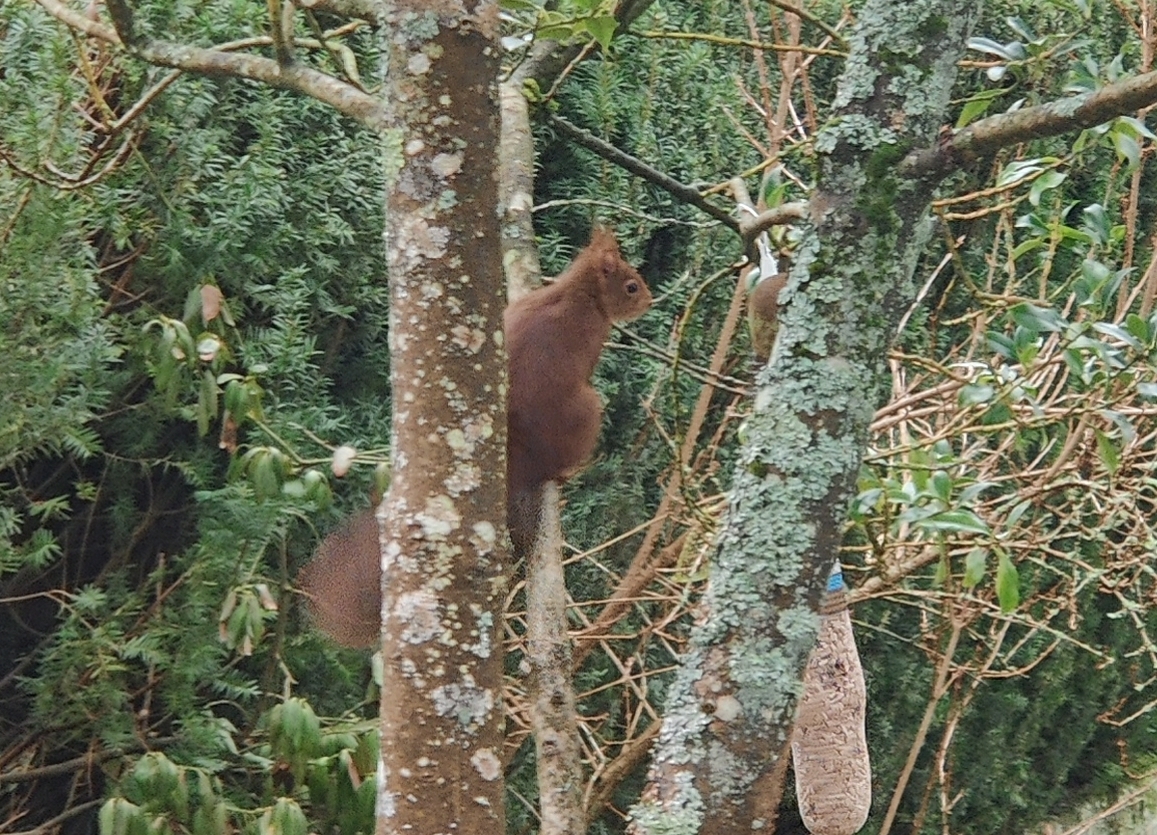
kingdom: Animalia
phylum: Chordata
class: Mammalia
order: Rodentia
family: Sciuridae
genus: Sciurus
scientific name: Sciurus vulgaris
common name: Eurasian red squirrel
